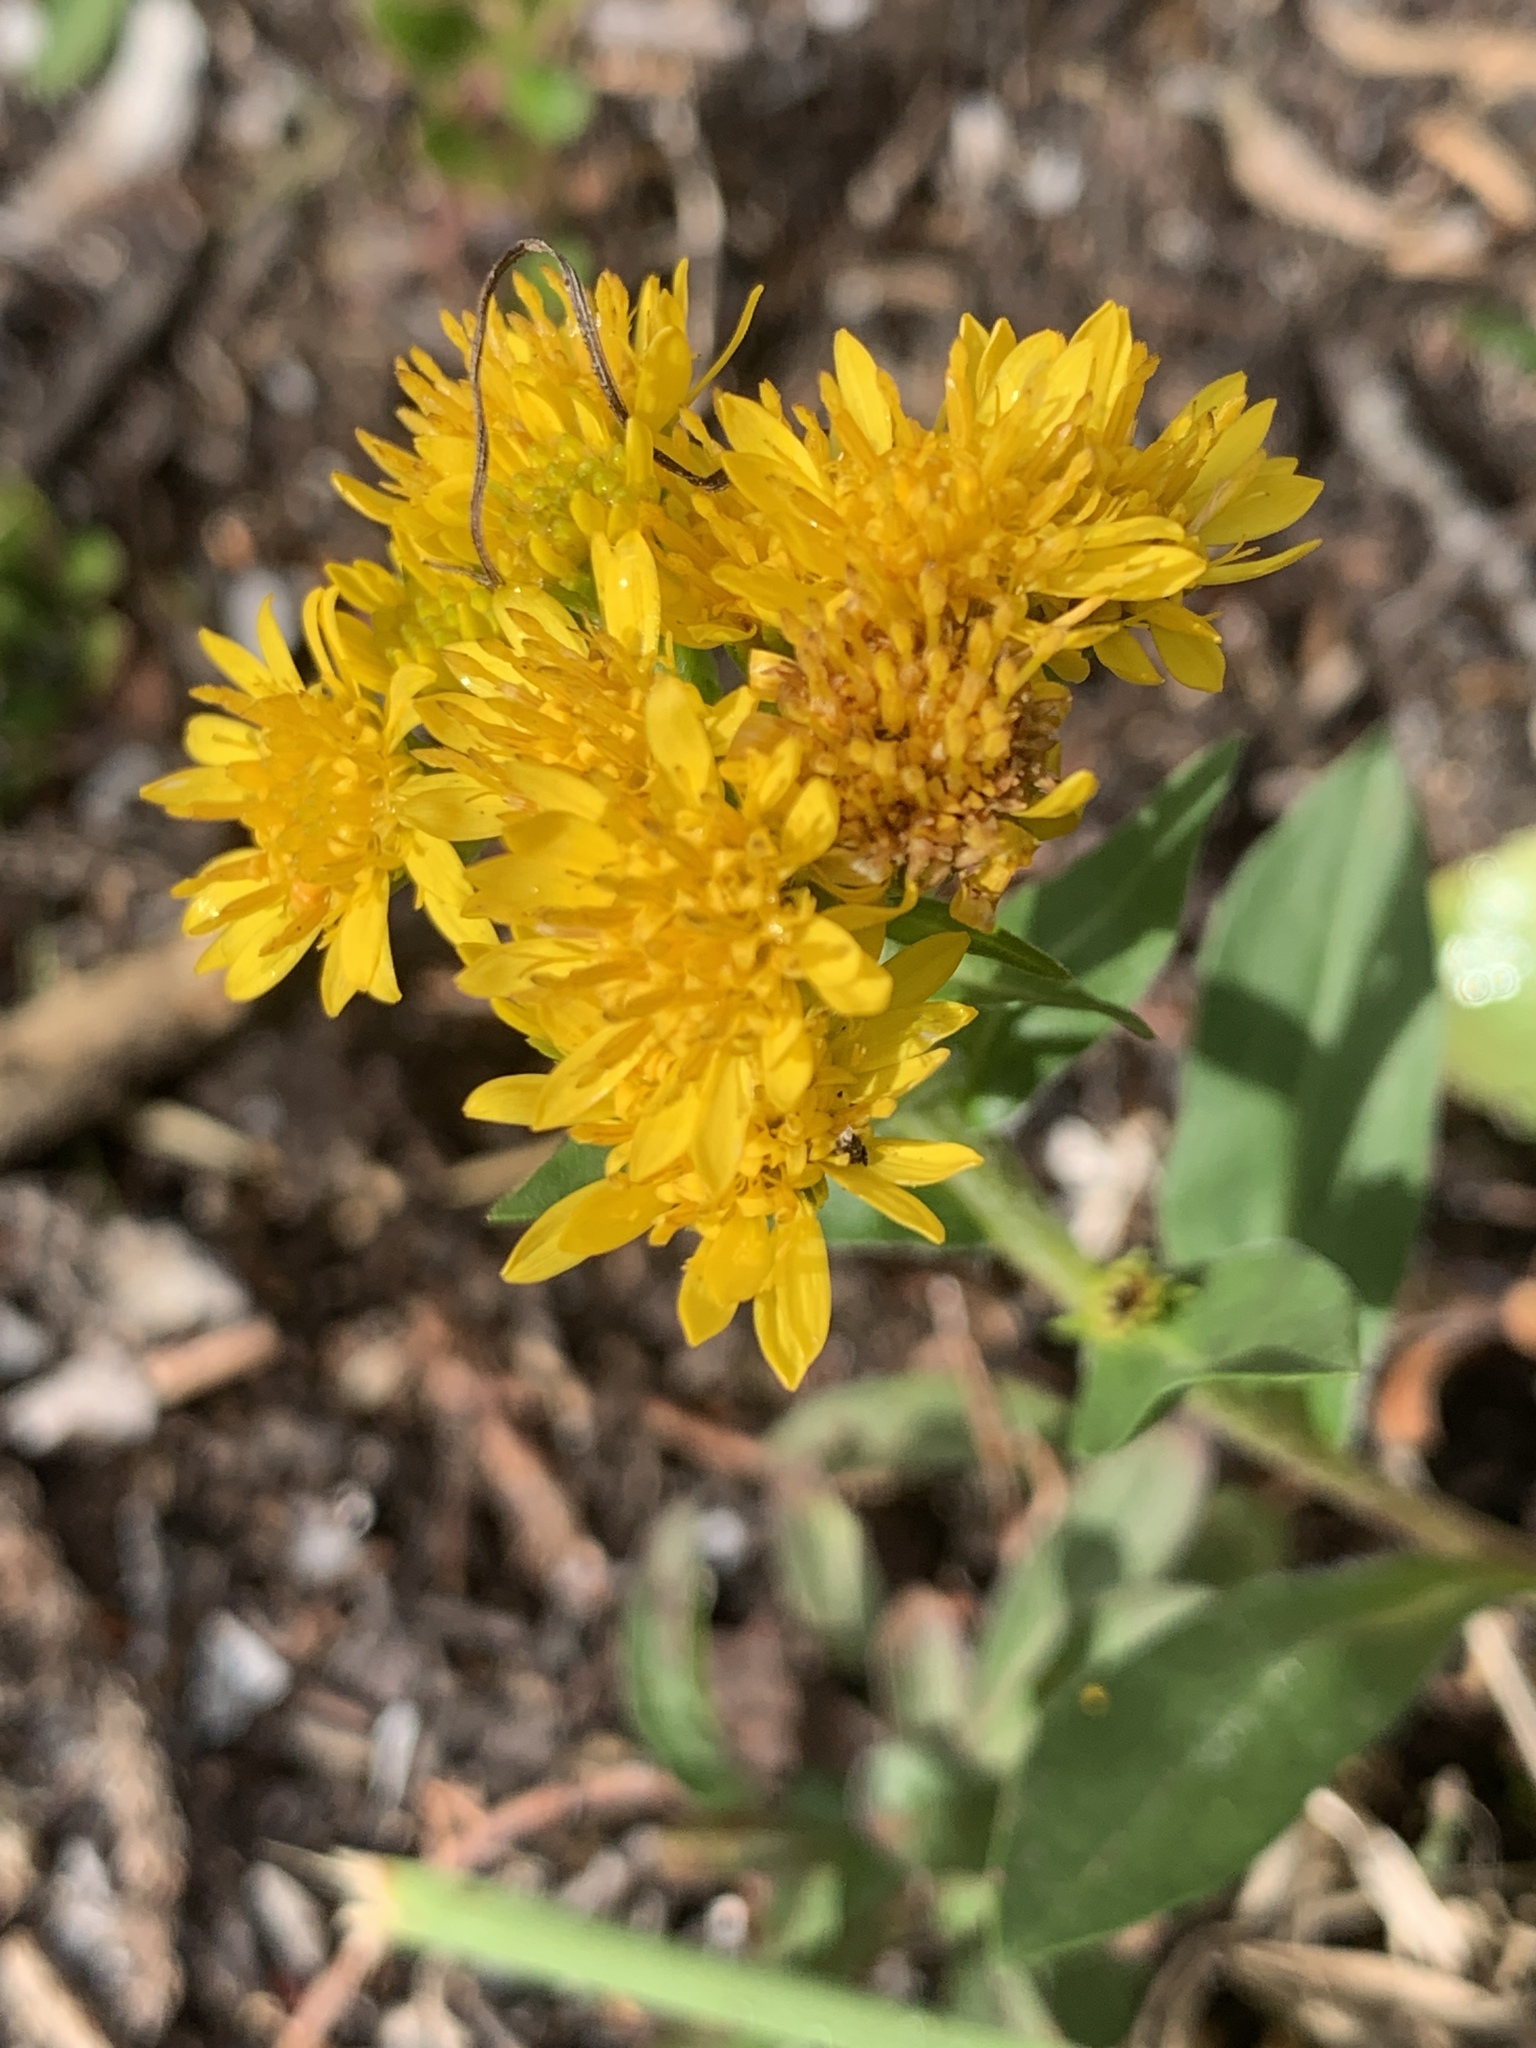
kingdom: Plantae
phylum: Tracheophyta
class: Magnoliopsida
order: Asterales
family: Asteraceae
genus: Solidago
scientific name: Solidago multiradiata
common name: Northern goldenrod
